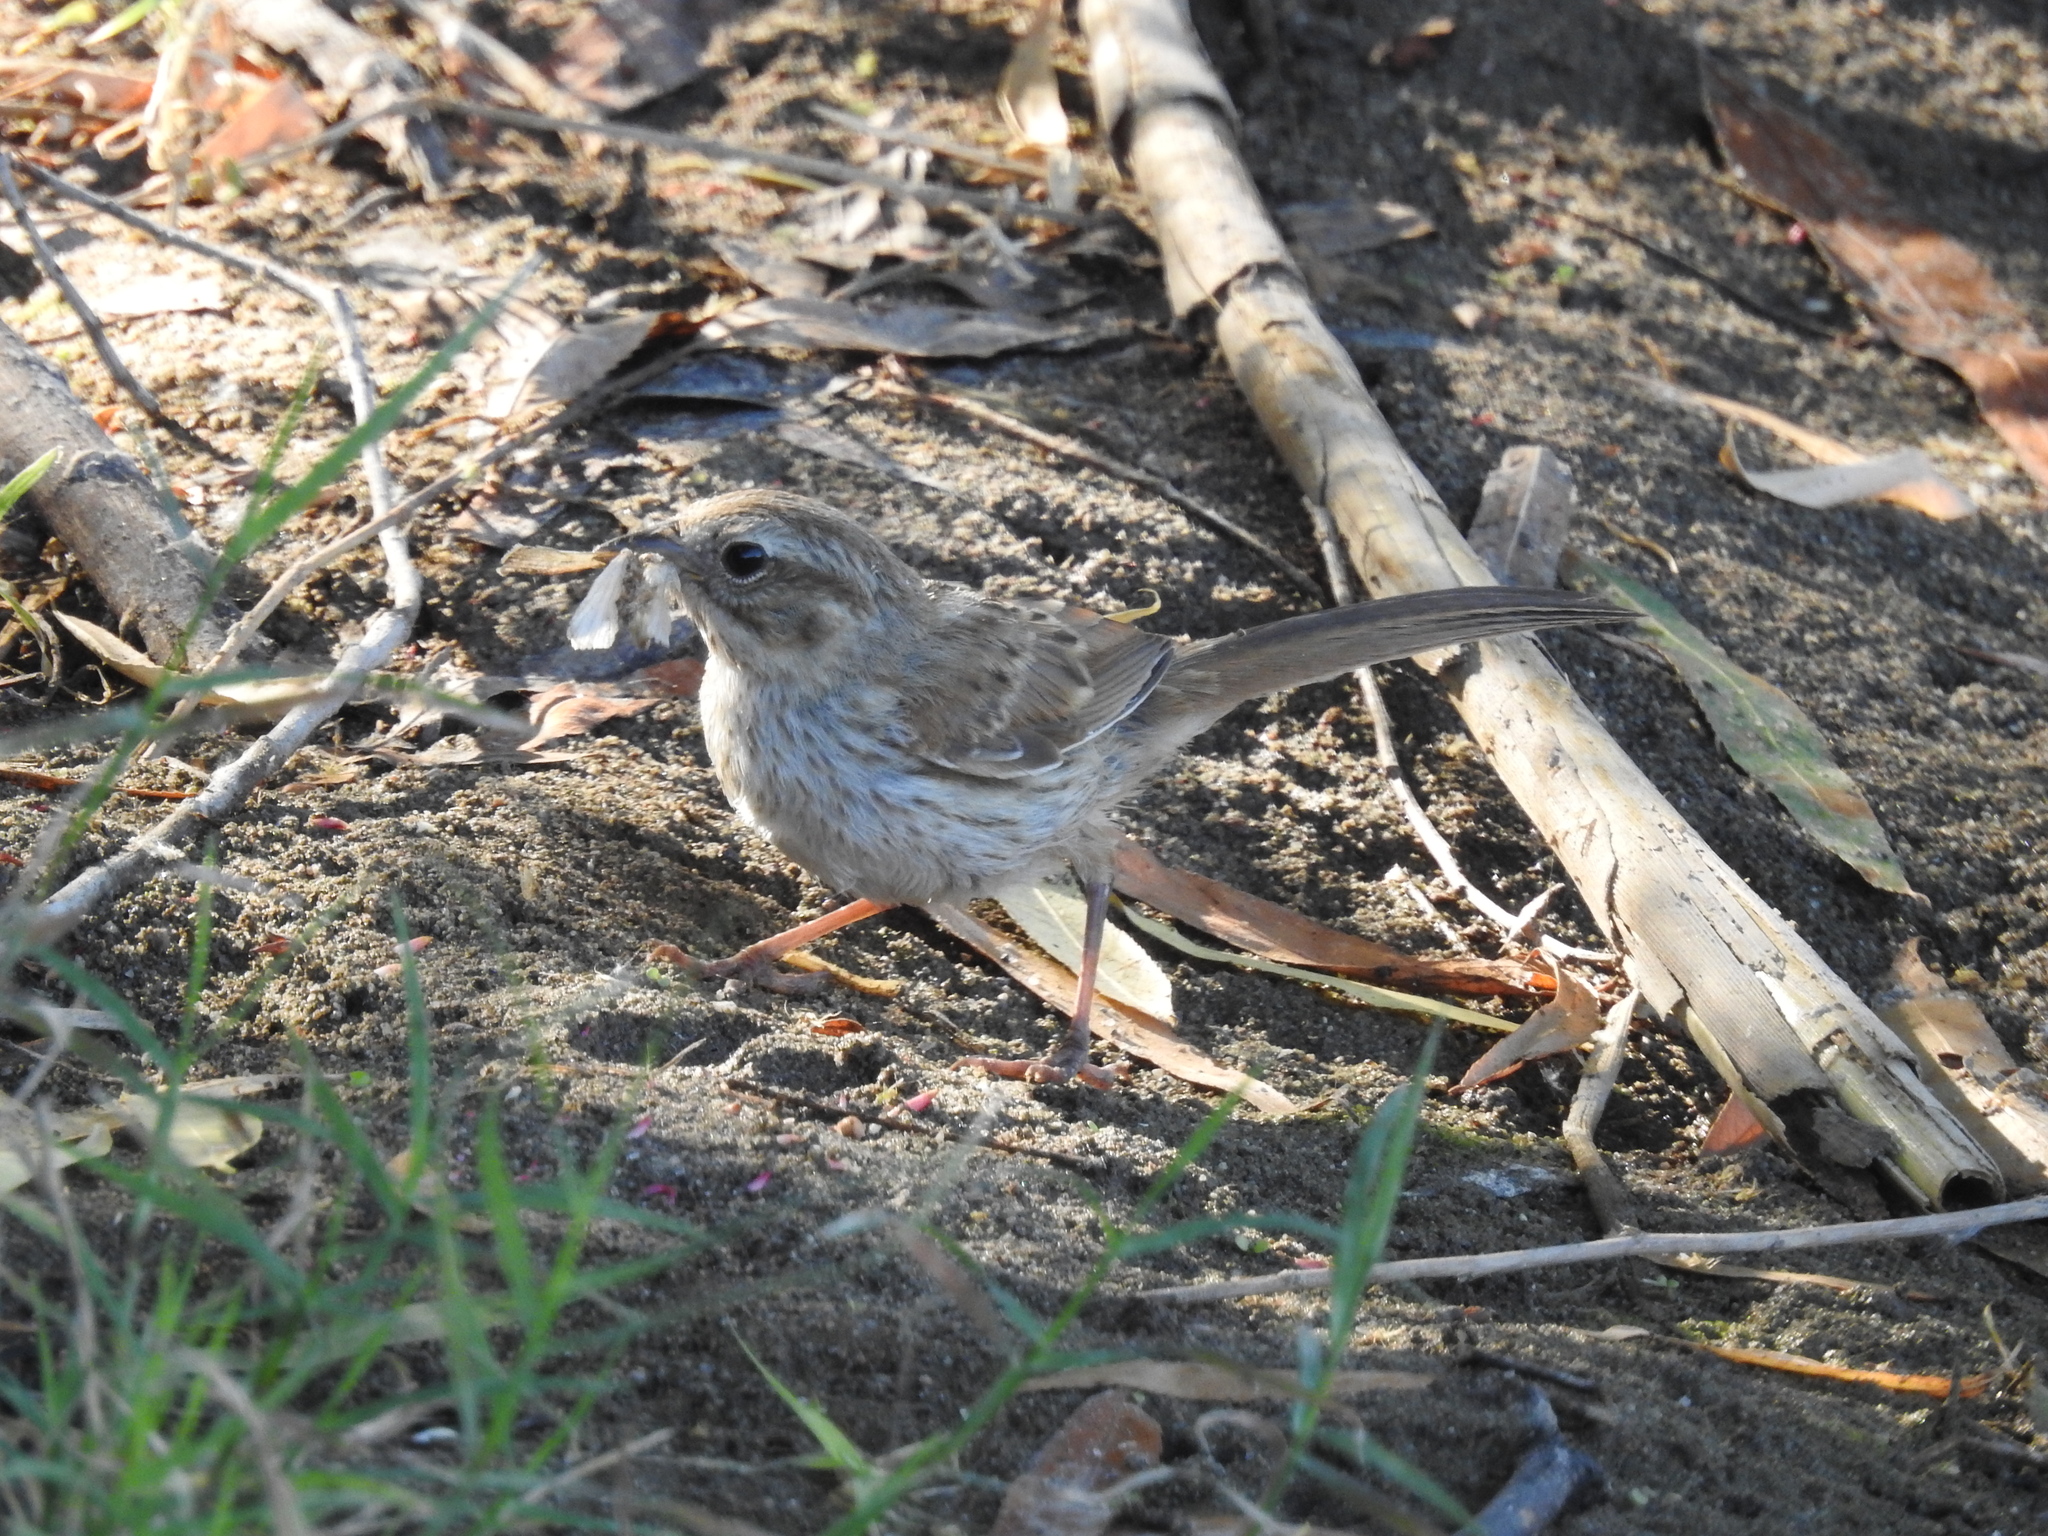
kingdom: Animalia
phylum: Chordata
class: Aves
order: Passeriformes
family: Passerellidae
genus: Melospiza
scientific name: Melospiza melodia
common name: Song sparrow
